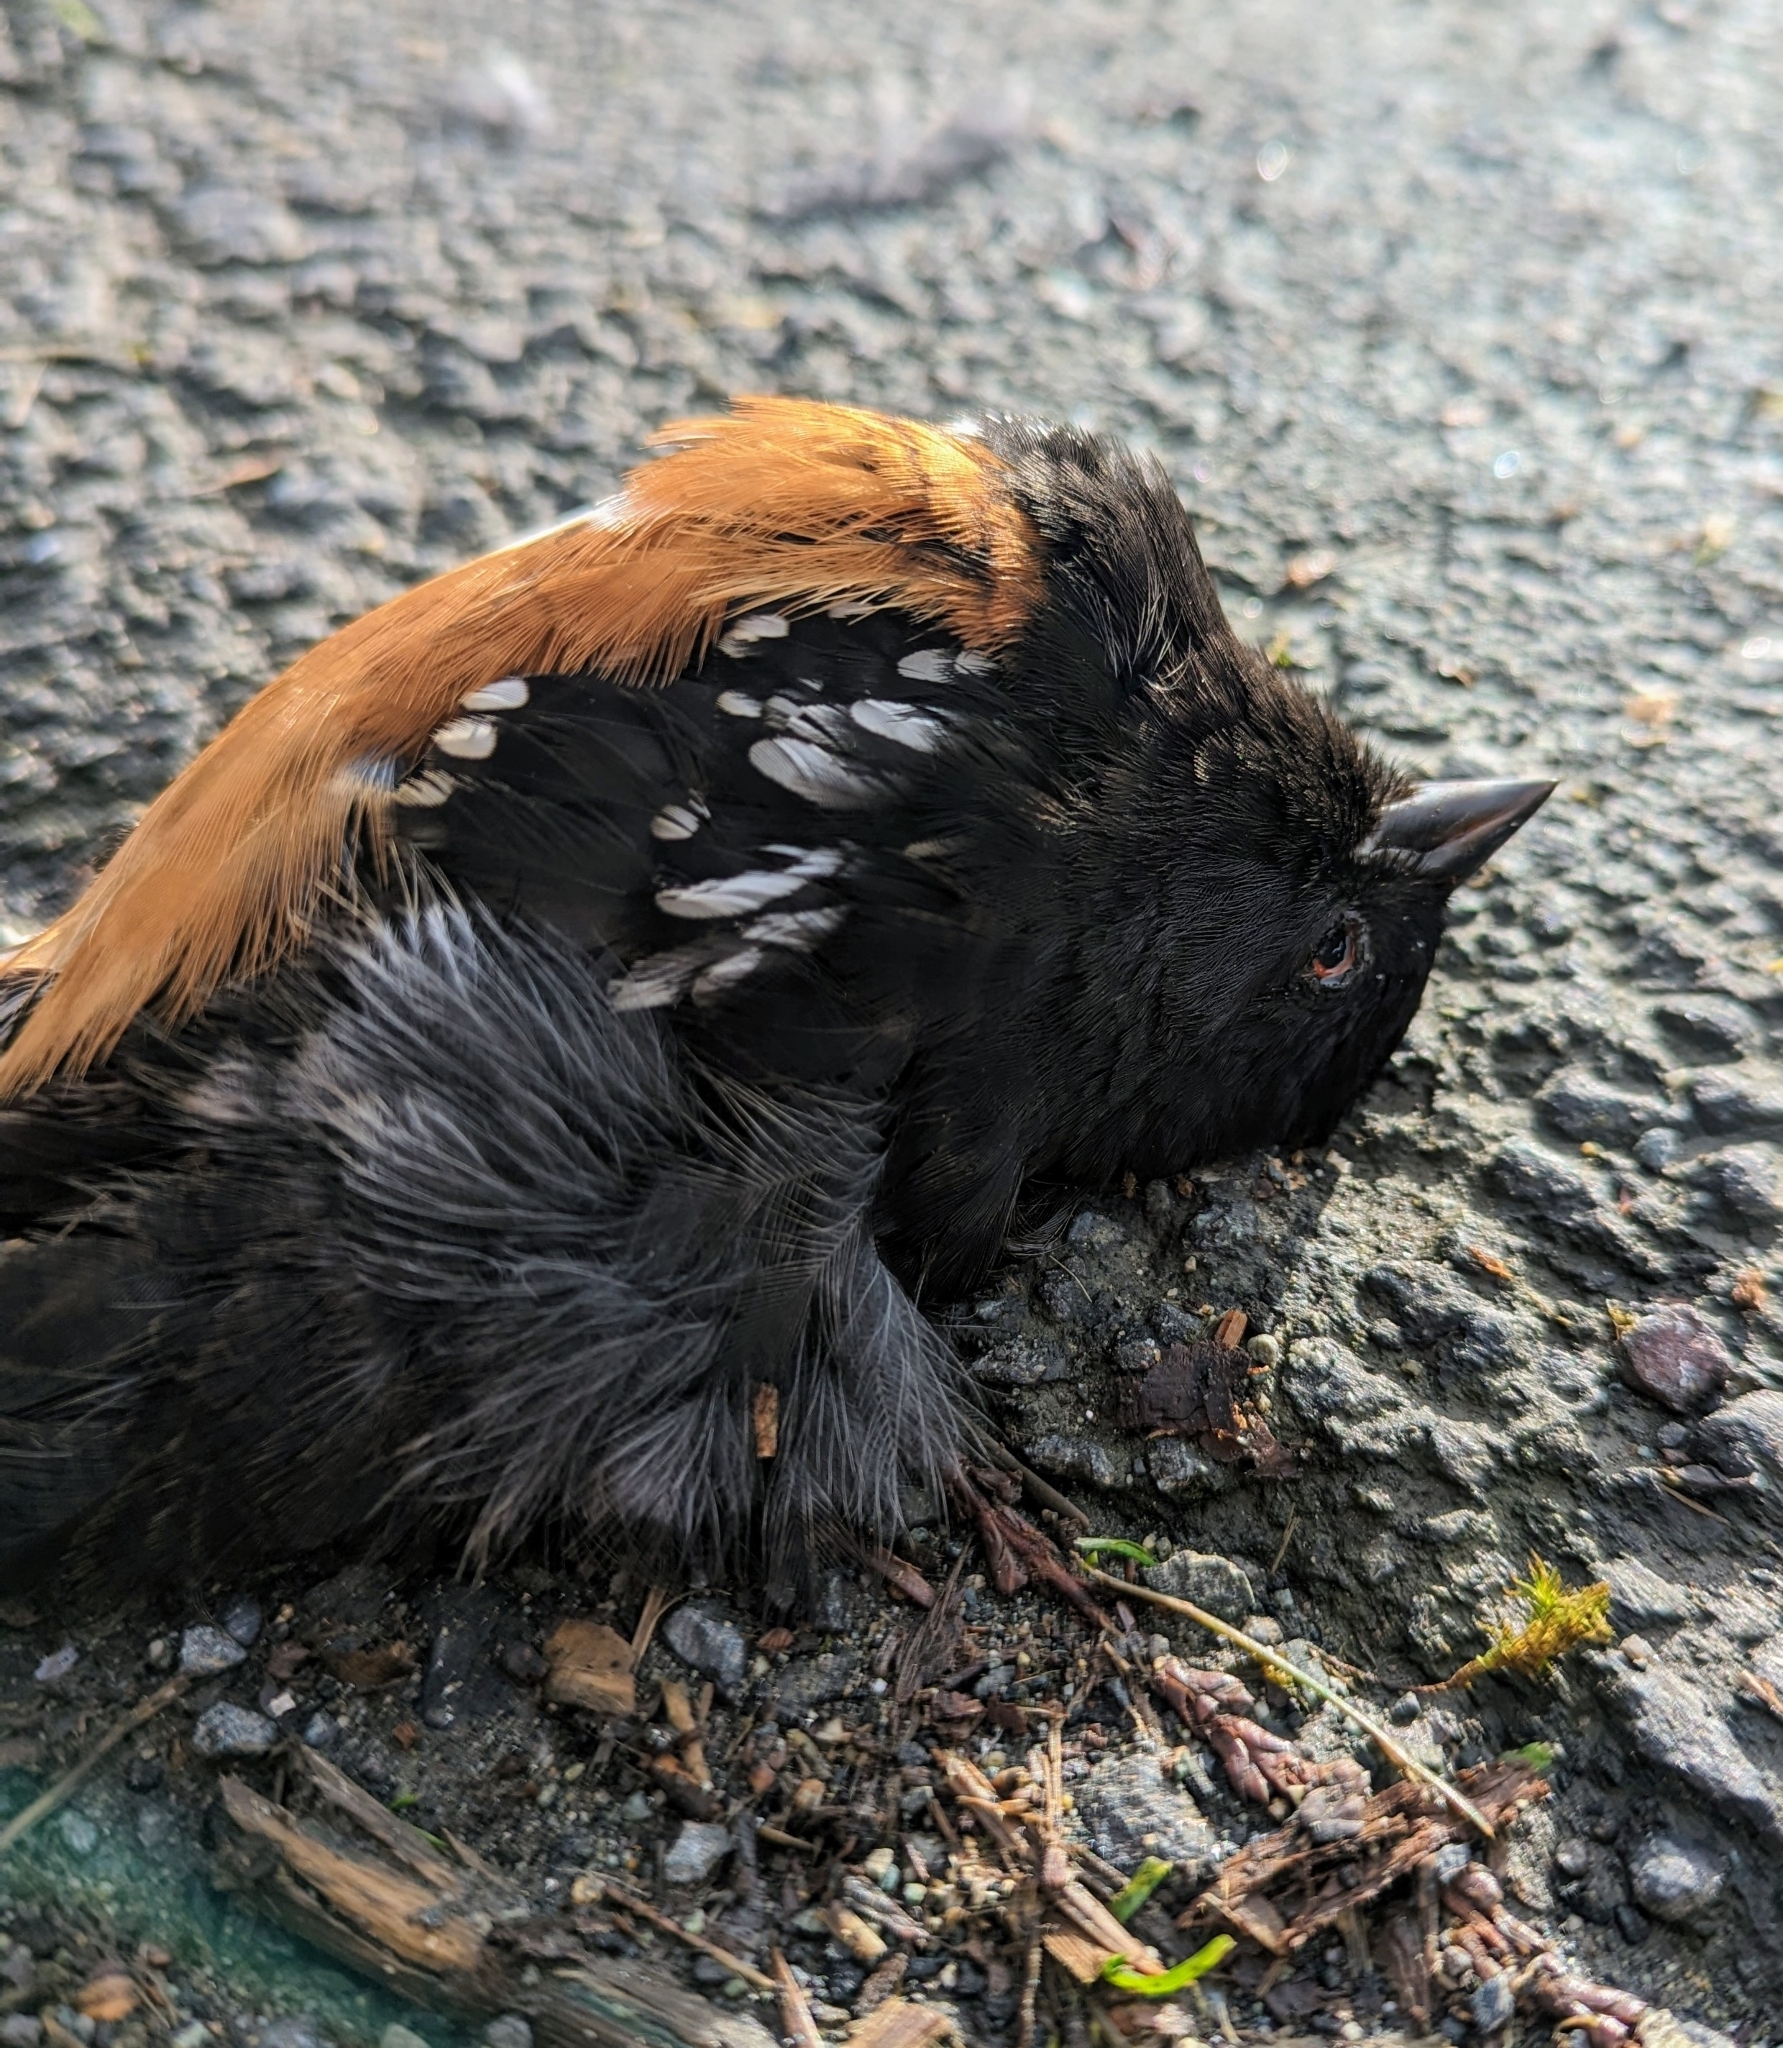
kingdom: Animalia
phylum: Chordata
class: Aves
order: Passeriformes
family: Passerellidae
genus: Pipilo
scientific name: Pipilo maculatus
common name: Spotted towhee
